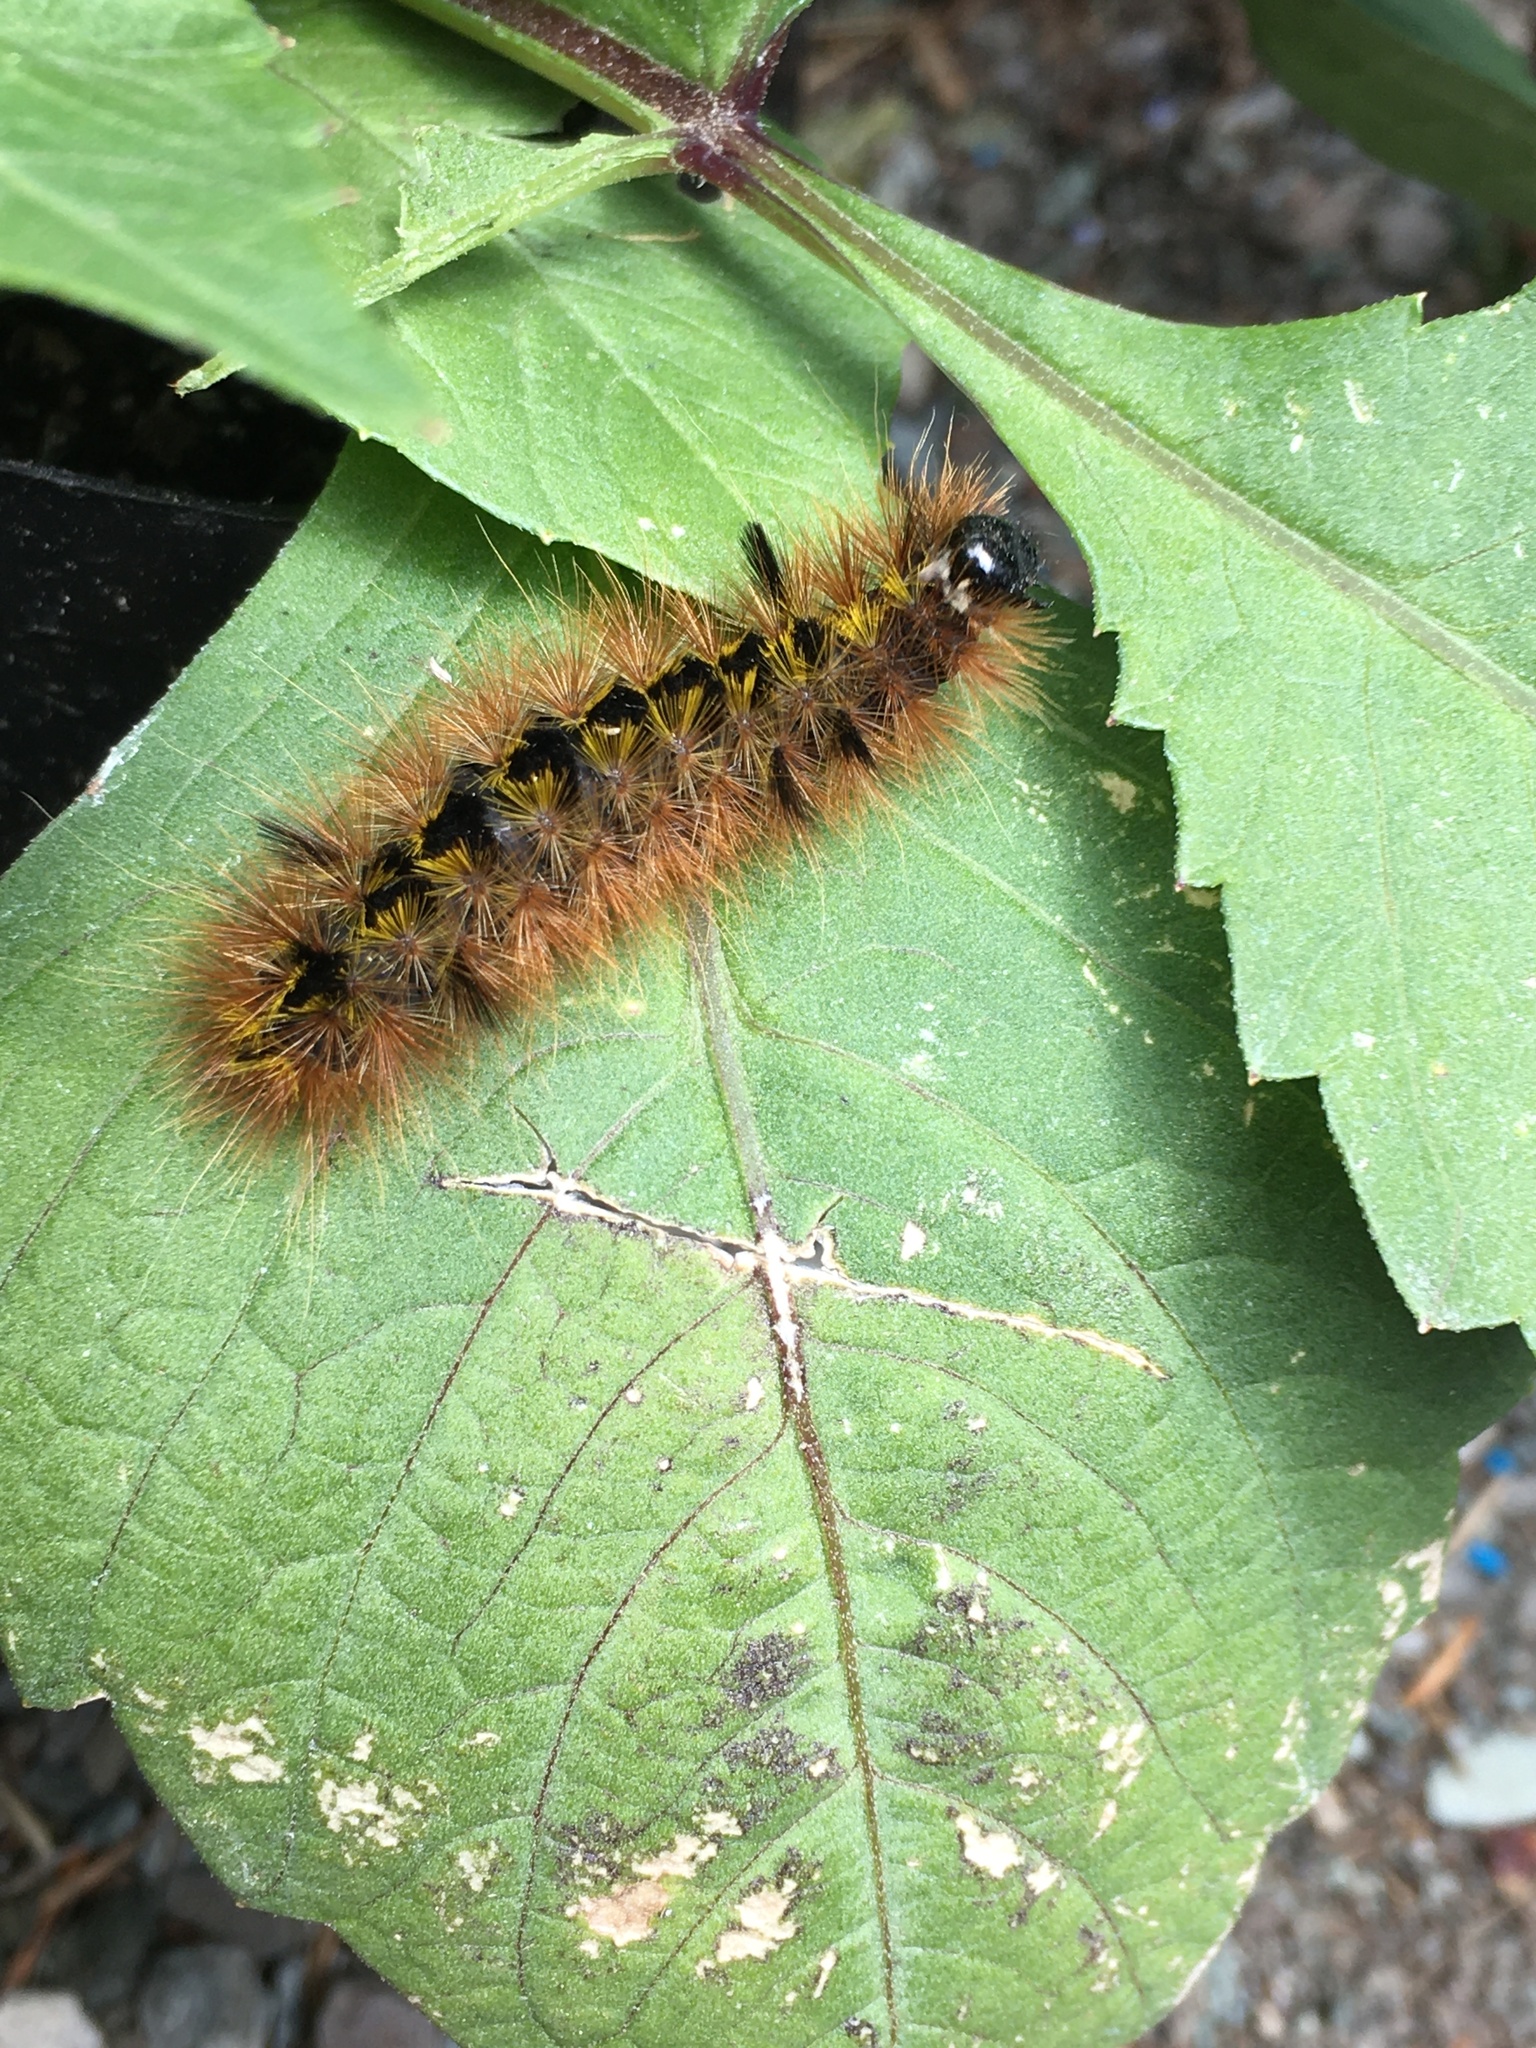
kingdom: Animalia
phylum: Arthropoda
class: Insecta
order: Lepidoptera
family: Erebidae
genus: Lophocampa
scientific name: Lophocampa argentata
